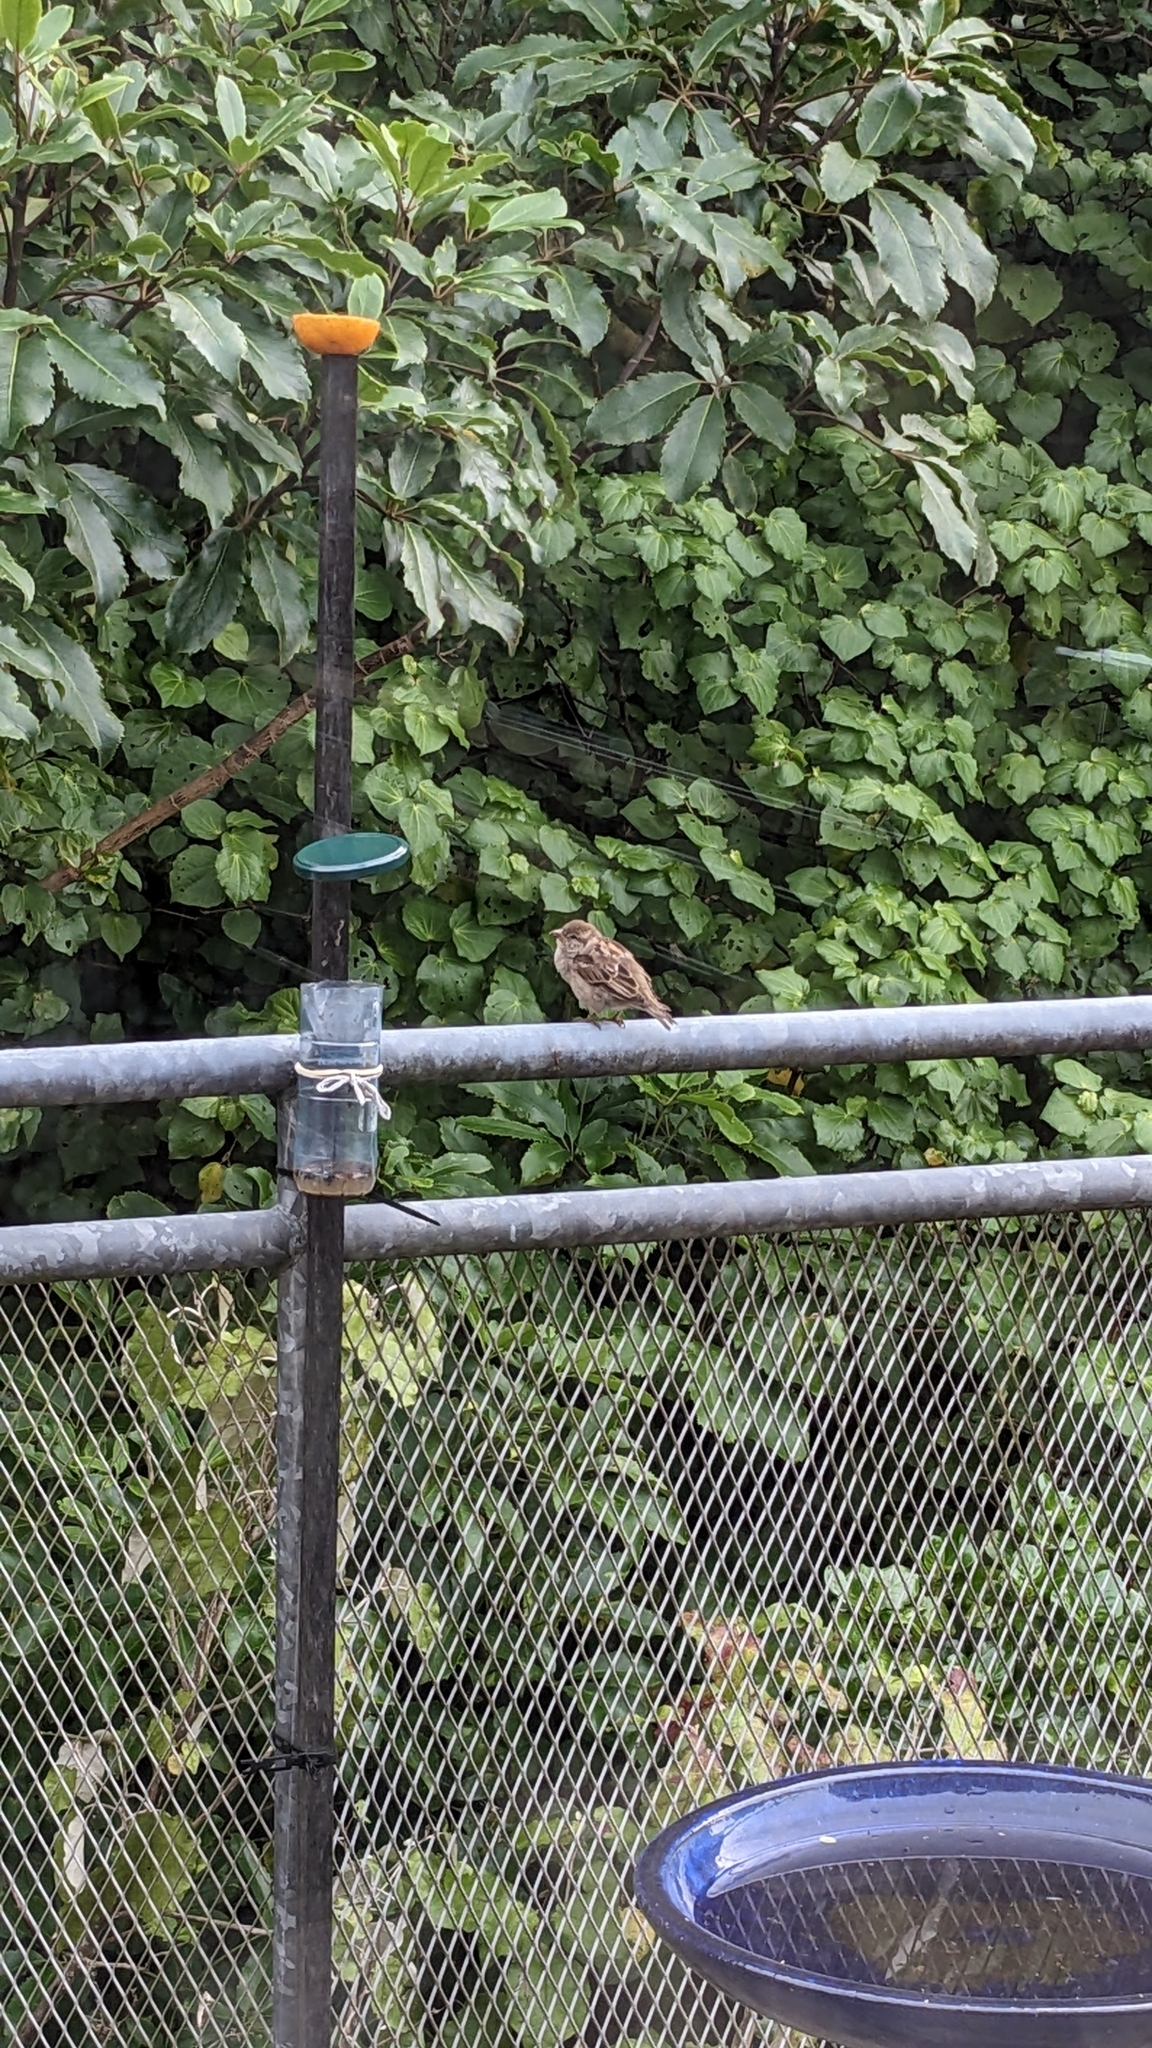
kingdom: Animalia
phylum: Chordata
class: Aves
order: Passeriformes
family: Passeridae
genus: Passer
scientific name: Passer domesticus
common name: House sparrow
